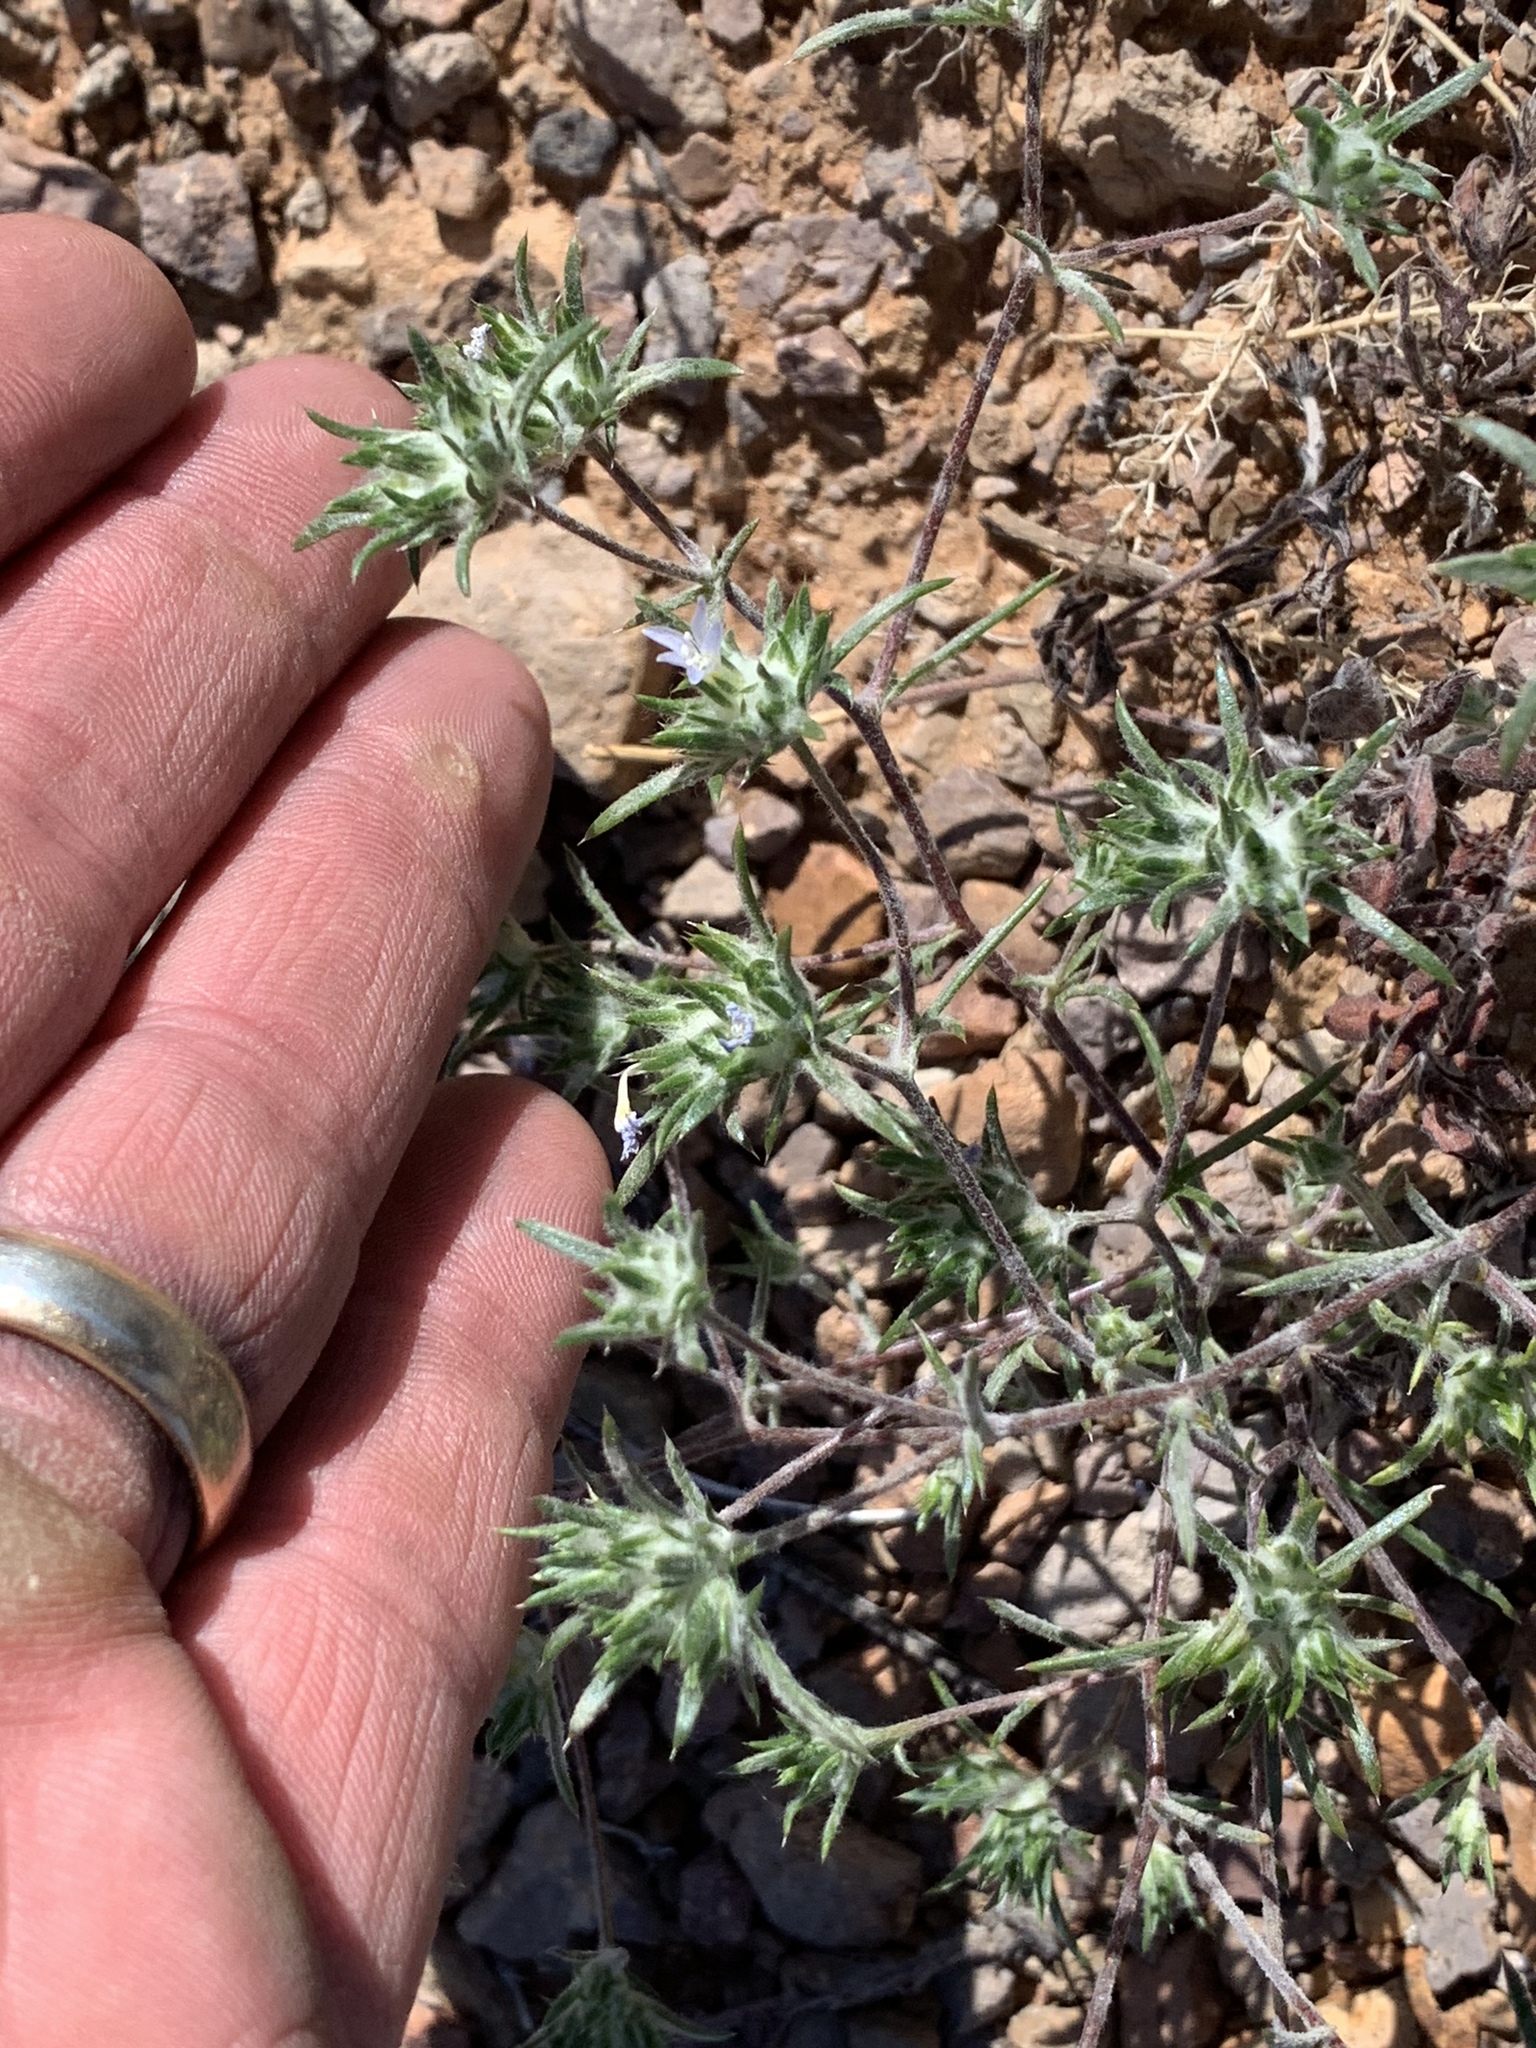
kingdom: Plantae
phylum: Tracheophyta
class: Magnoliopsida
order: Ericales
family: Polemoniaceae
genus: Eriastrum
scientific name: Eriastrum diffusum
